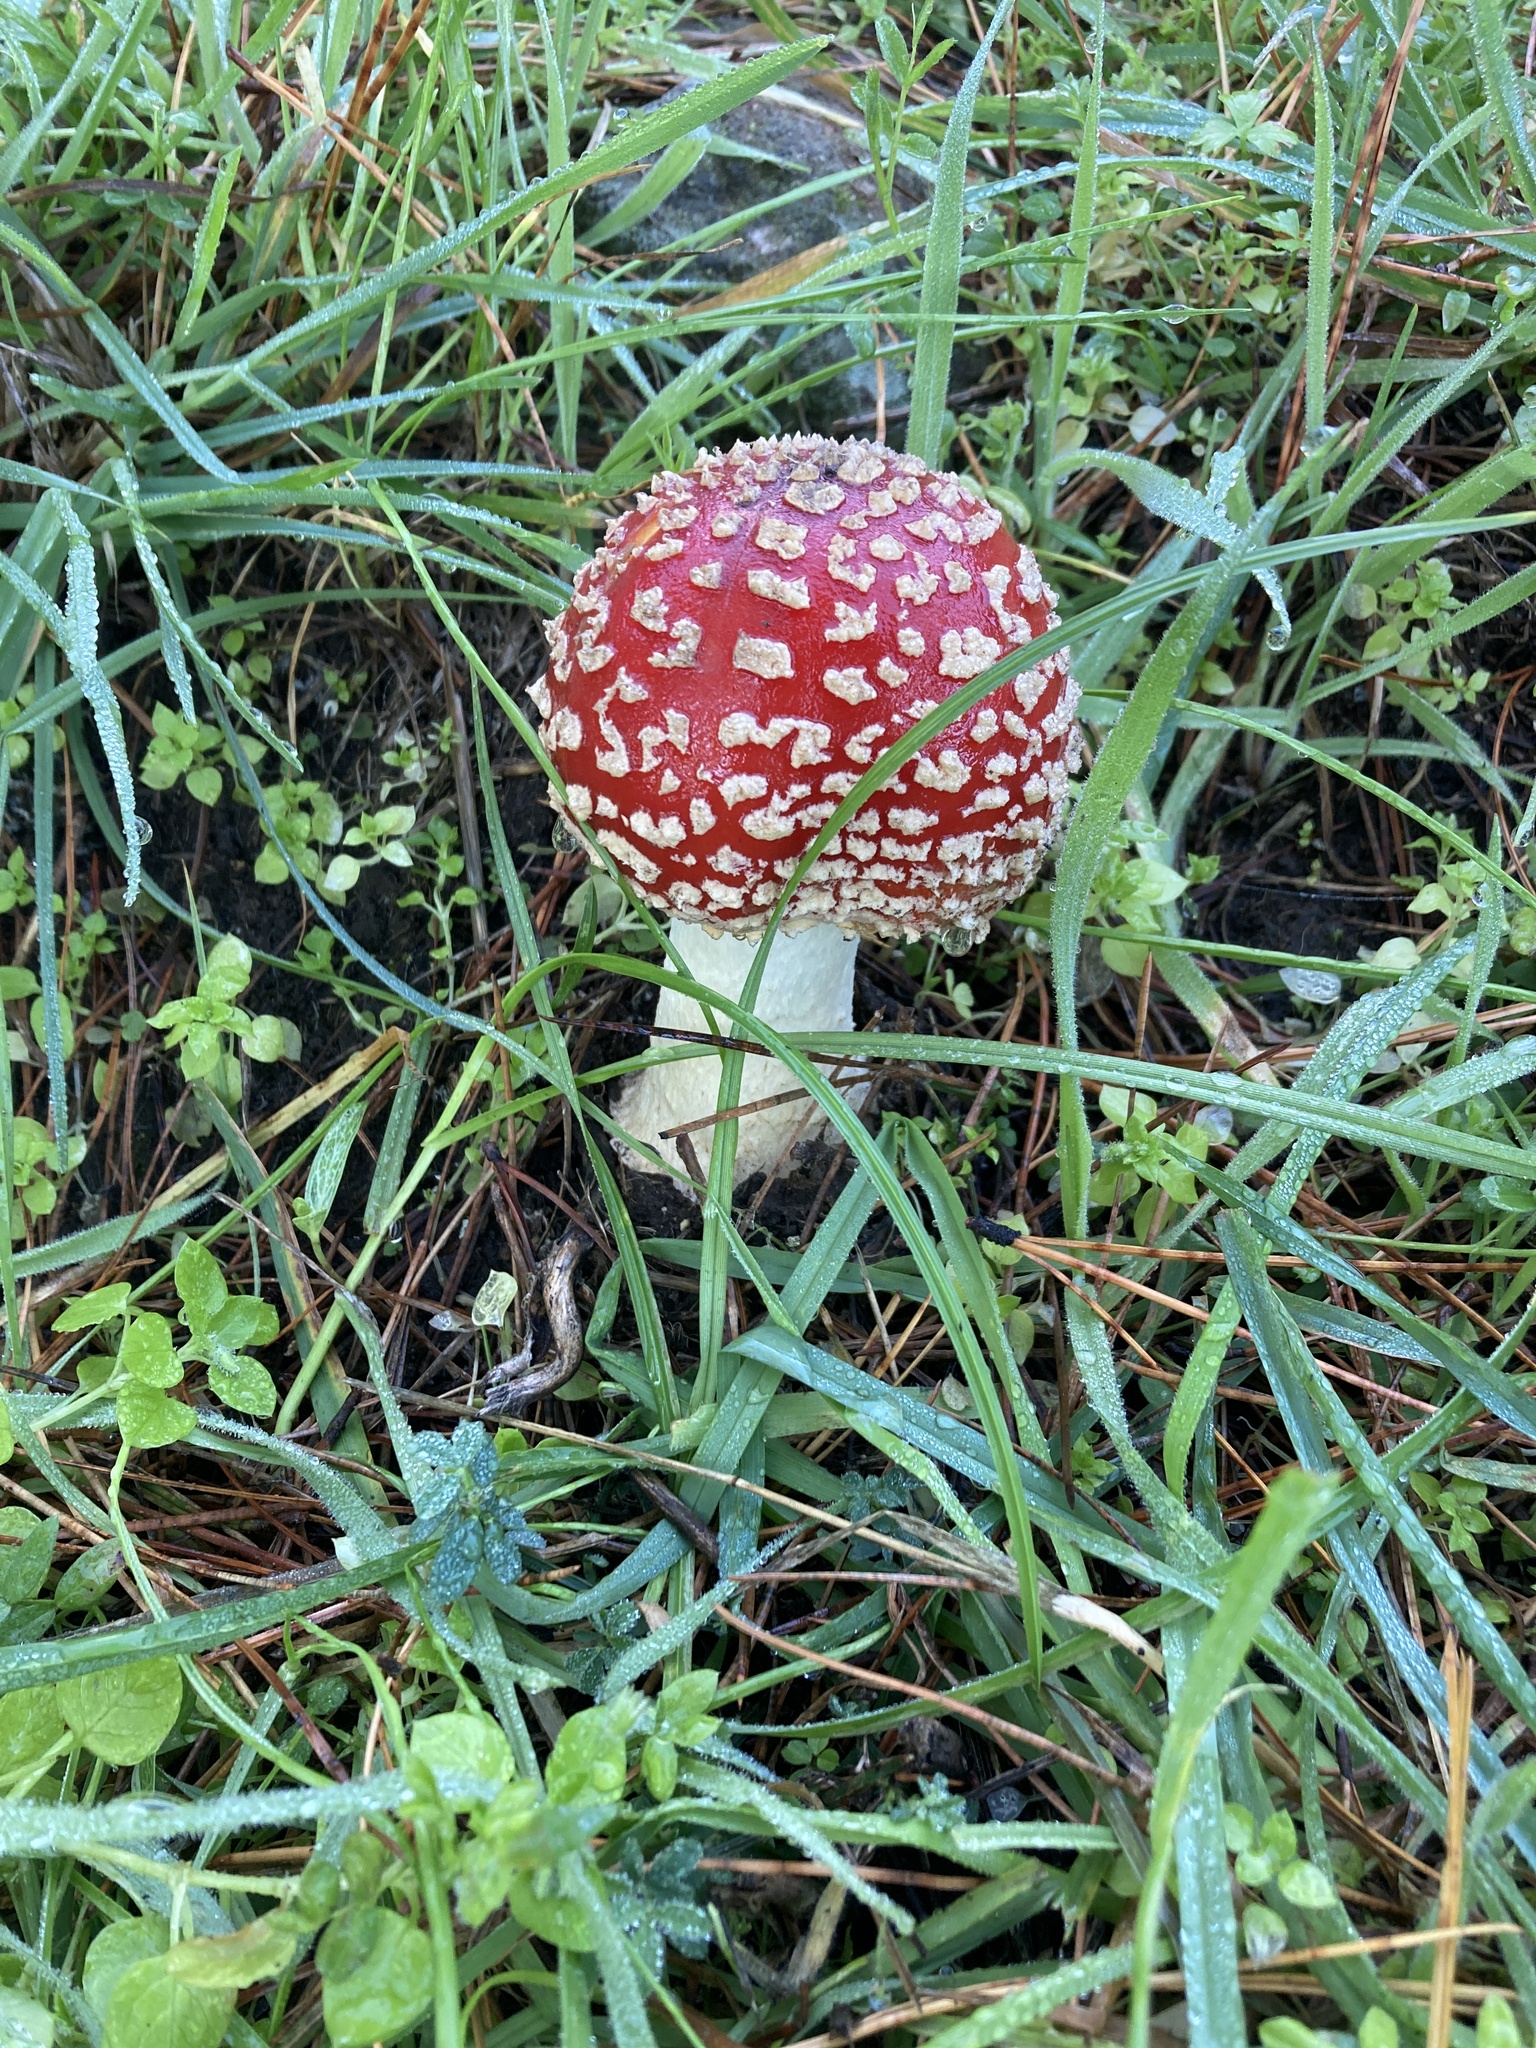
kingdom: Fungi
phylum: Basidiomycota
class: Agaricomycetes
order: Agaricales
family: Amanitaceae
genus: Amanita
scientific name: Amanita muscaria
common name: Fly agaric
